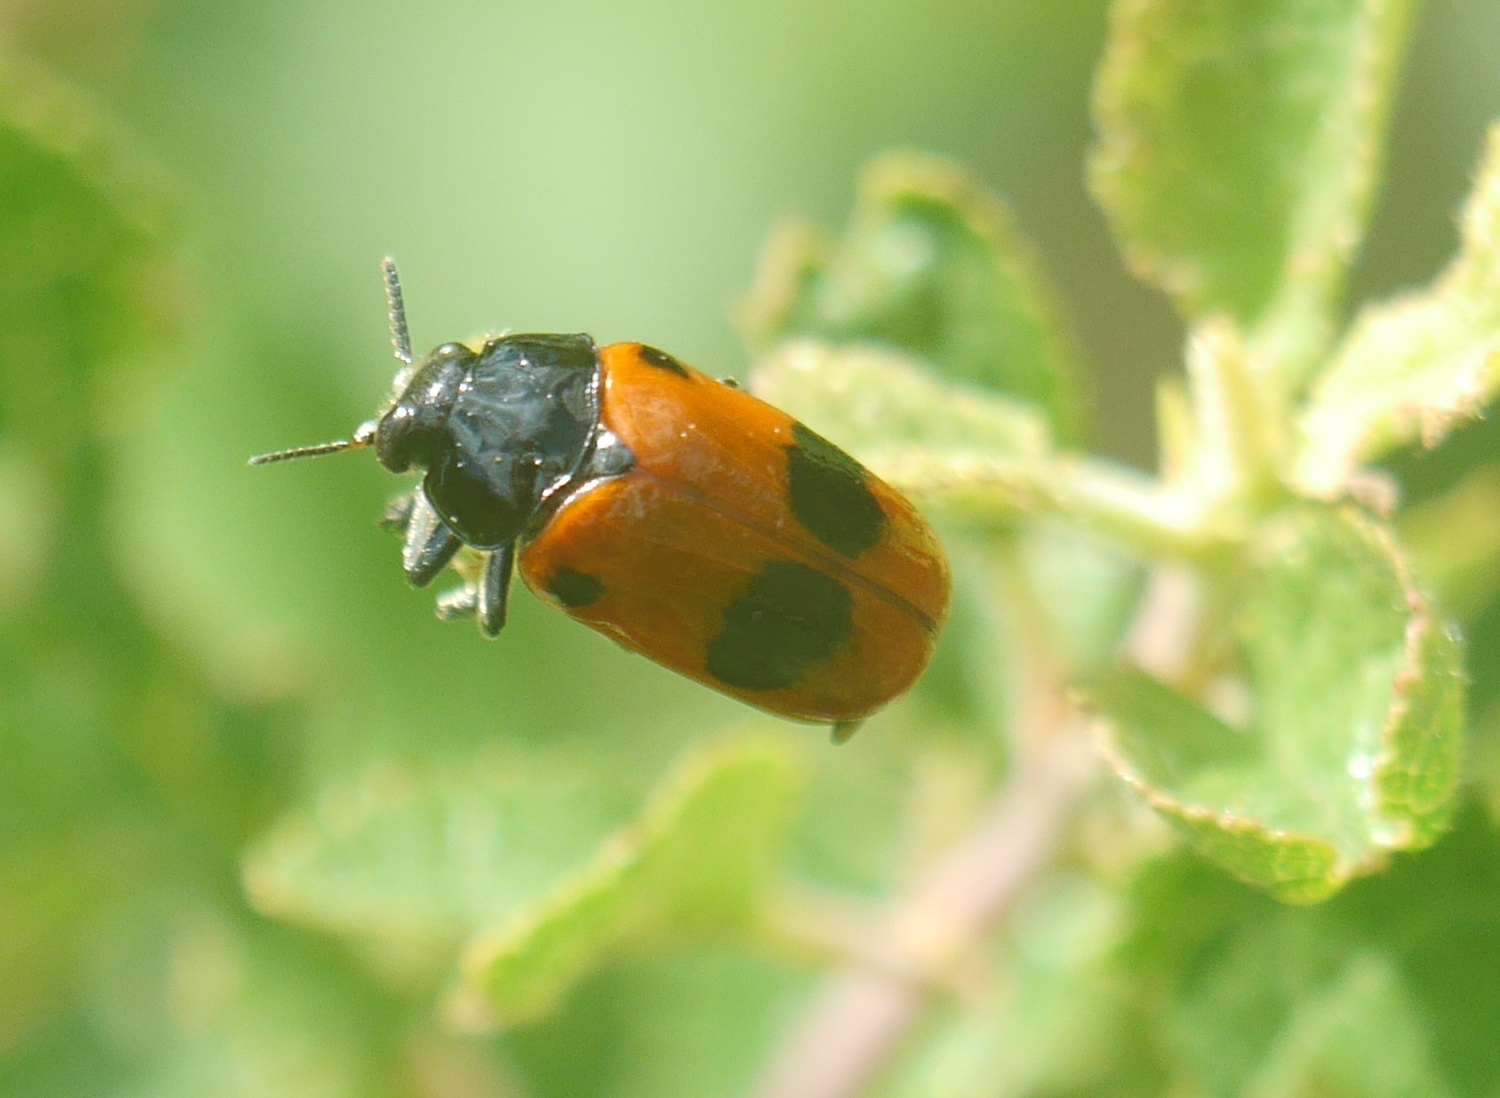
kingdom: Animalia
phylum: Arthropoda
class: Insecta
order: Coleoptera
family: Chrysomelidae
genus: Clytra
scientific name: Clytra laeviuscula
